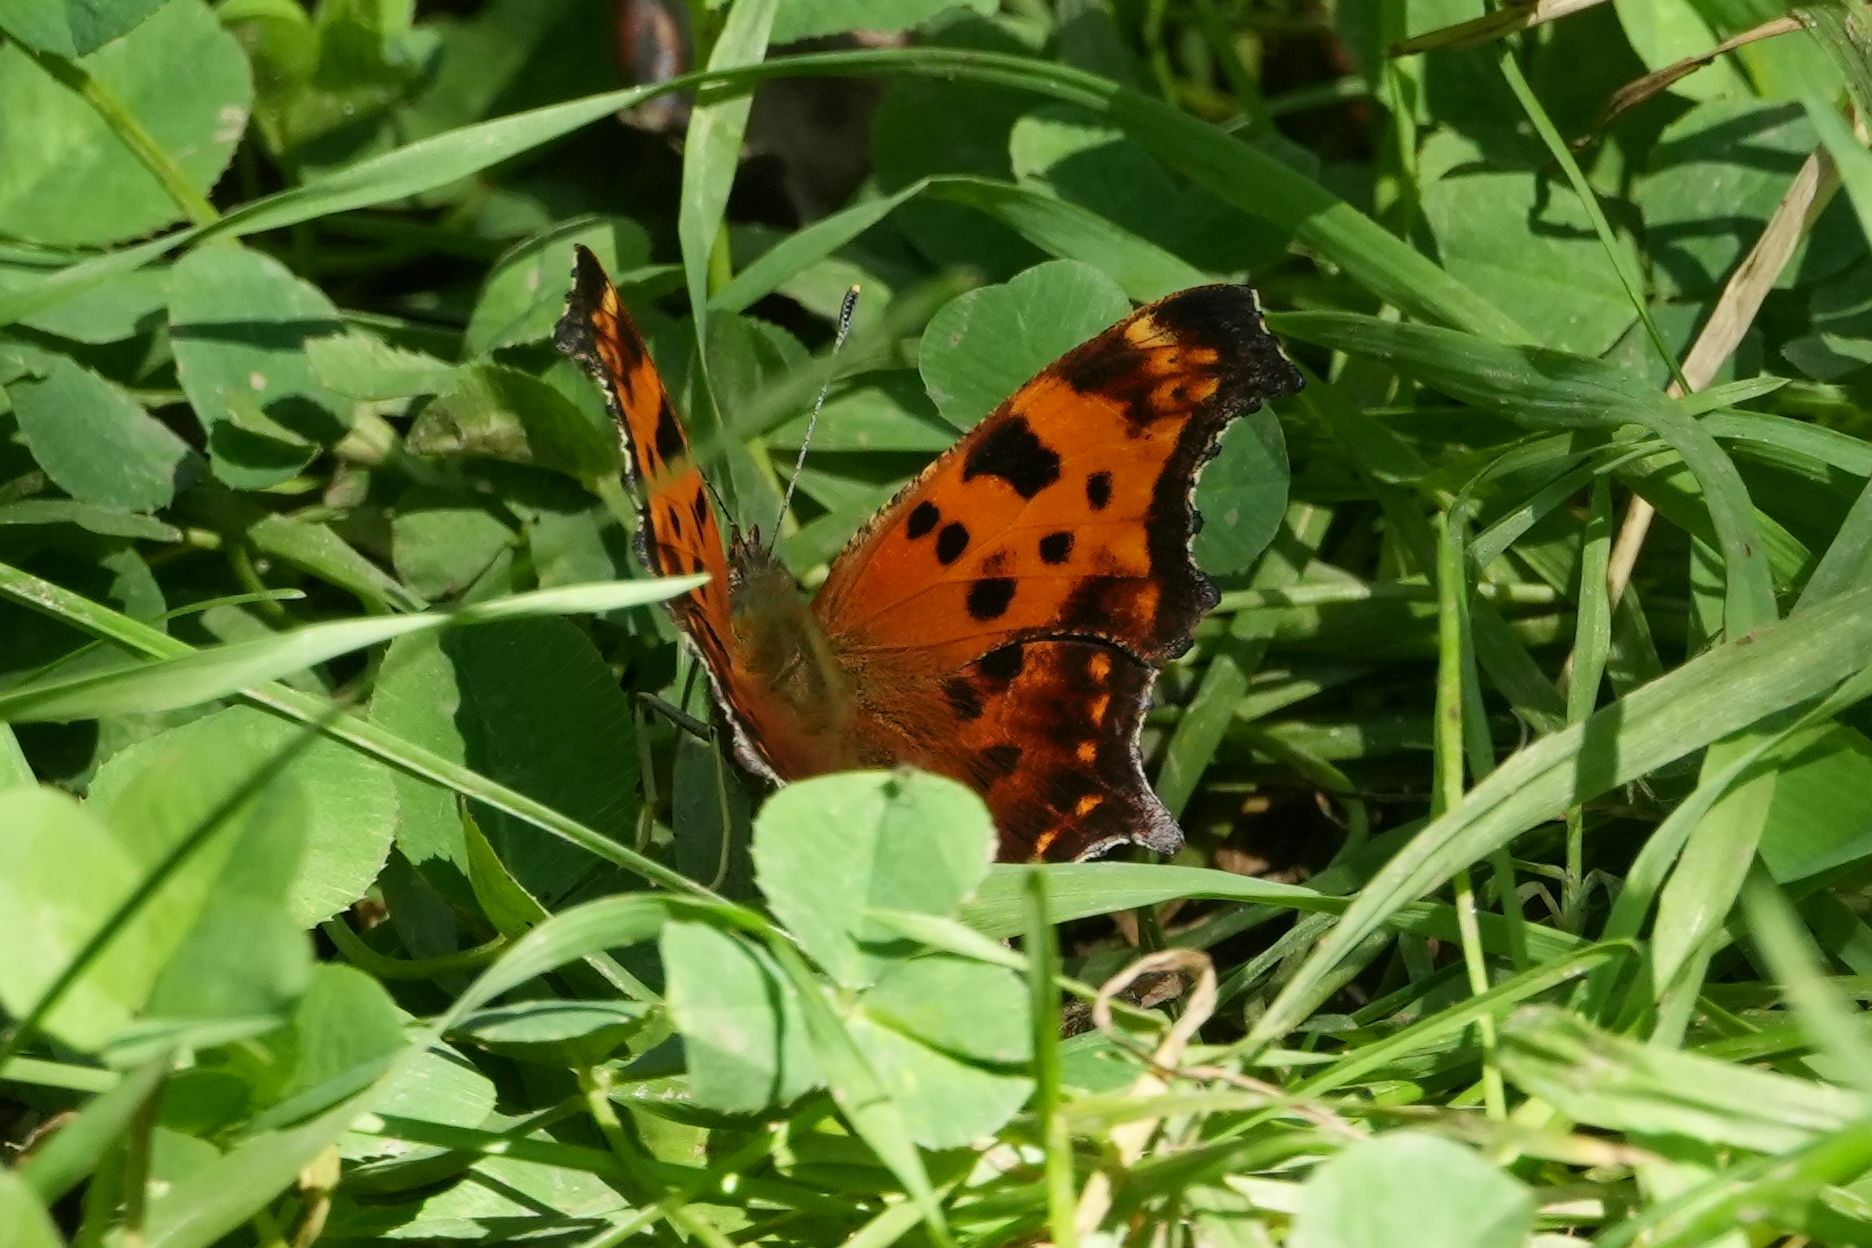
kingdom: Animalia
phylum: Arthropoda
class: Insecta
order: Lepidoptera
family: Nymphalidae
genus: Polygonia
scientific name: Polygonia comma
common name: Eastern comma
